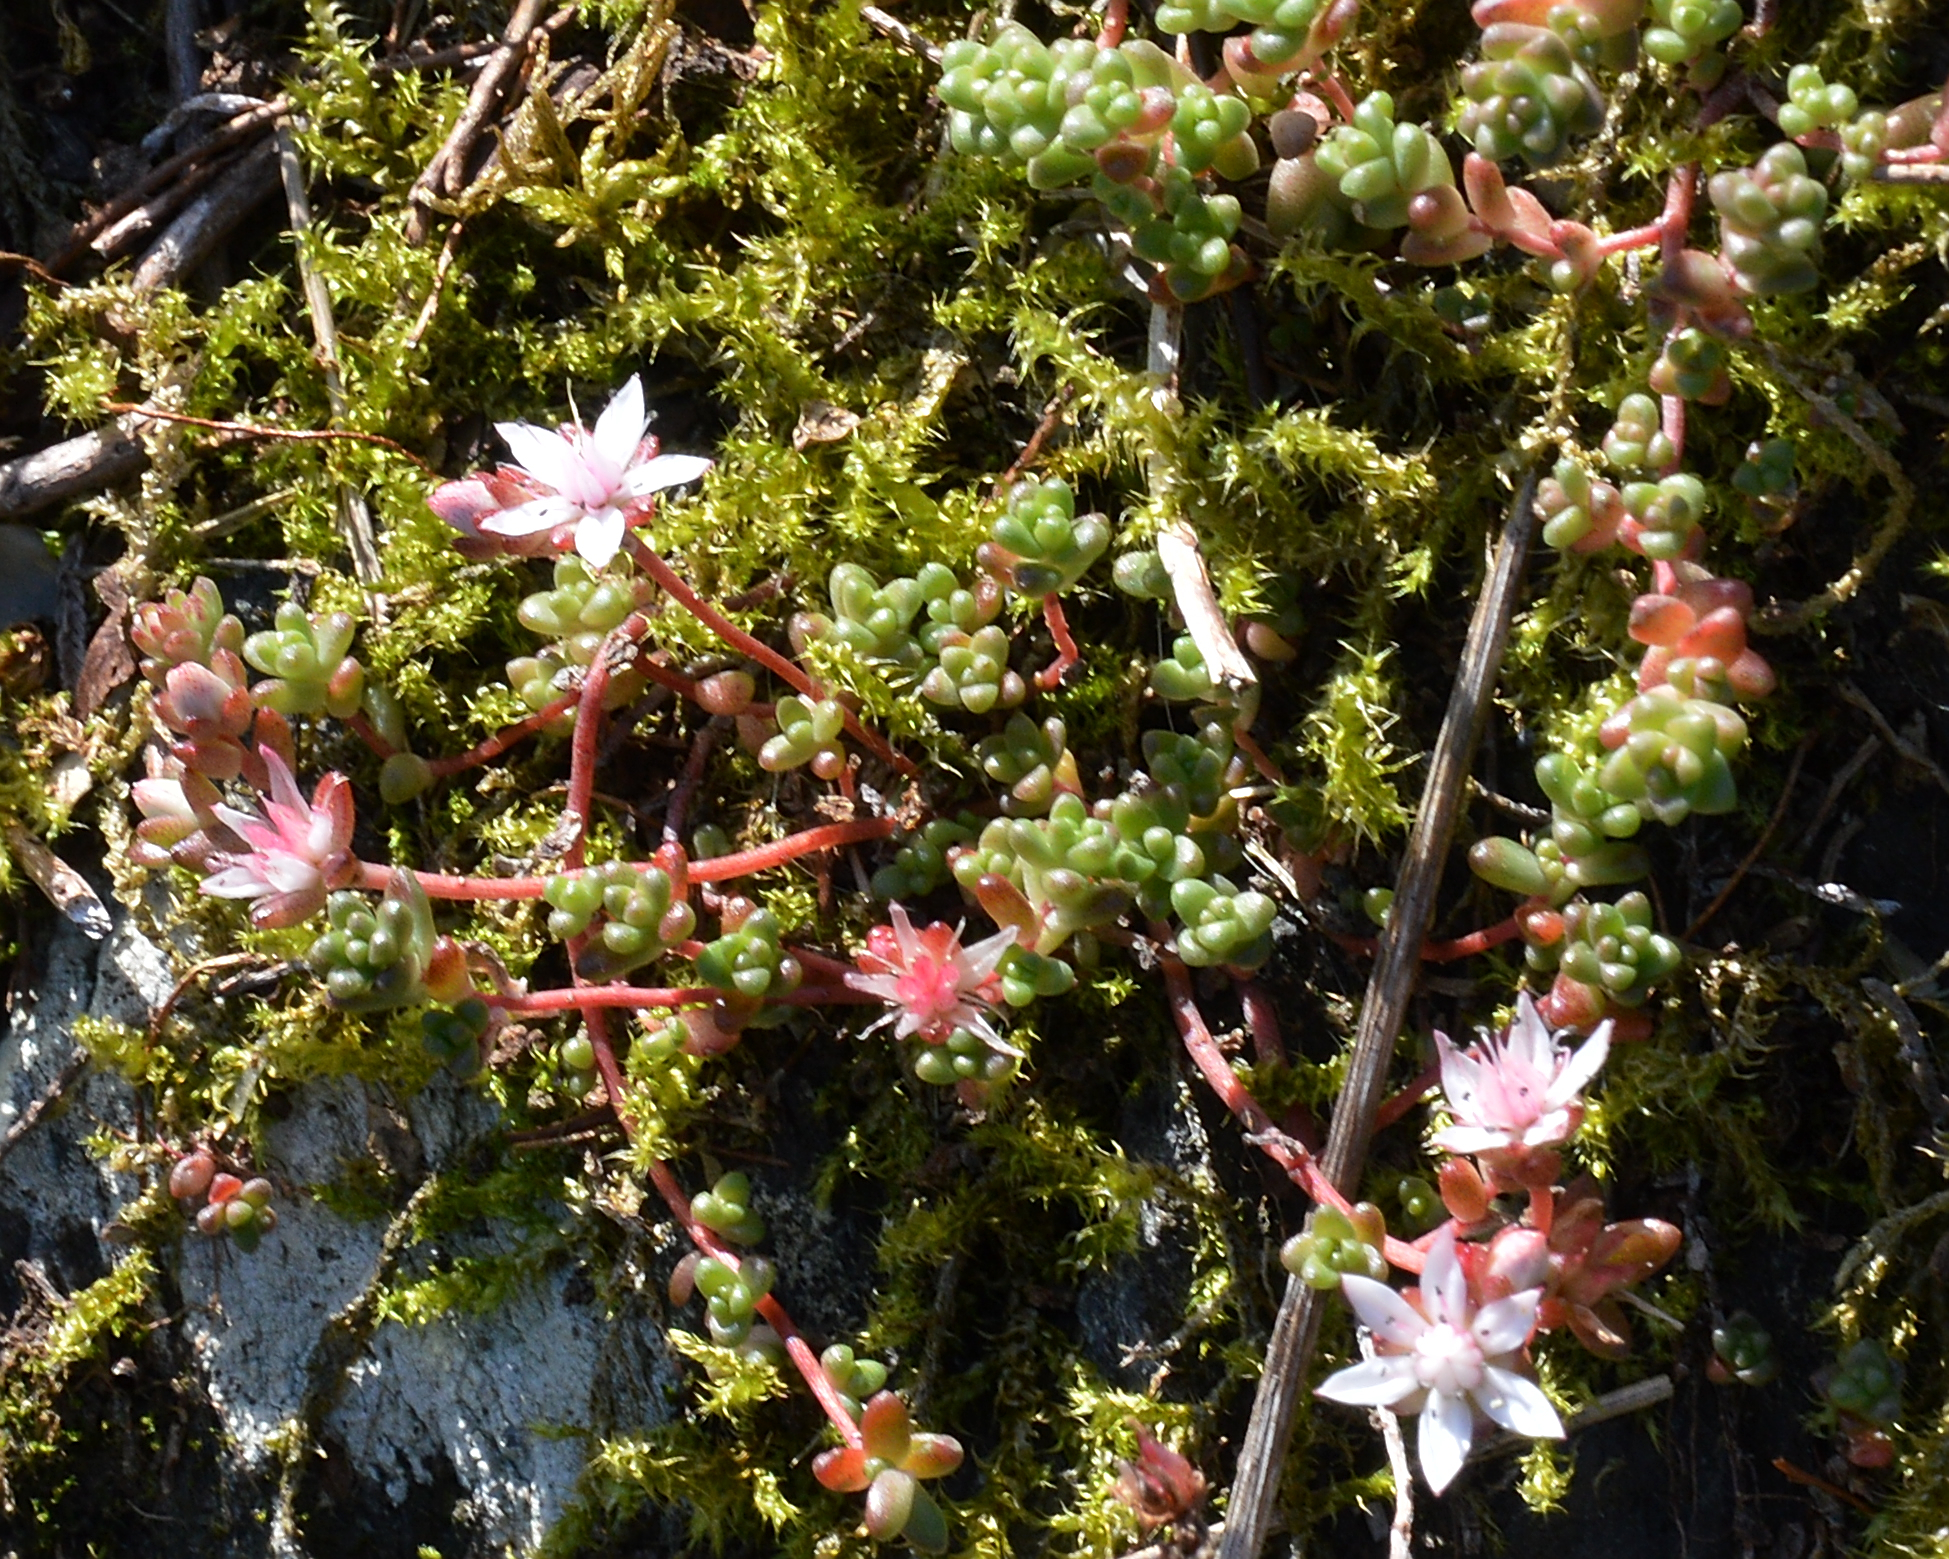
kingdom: Plantae
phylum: Tracheophyta
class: Magnoliopsida
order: Saxifragales
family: Crassulaceae
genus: Sedum
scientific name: Sedum anglicum
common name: English stonecrop
